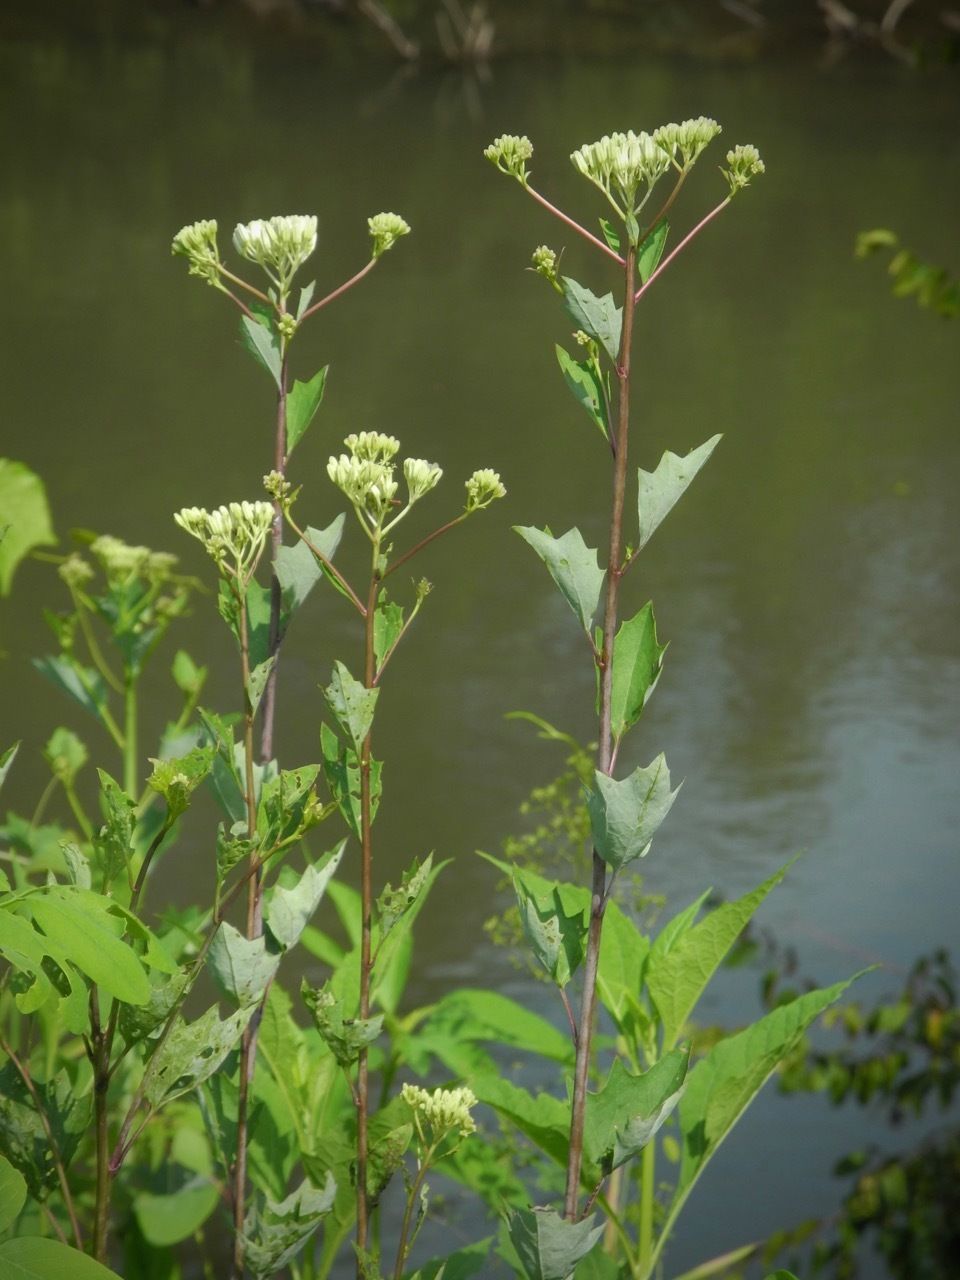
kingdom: Plantae
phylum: Tracheophyta
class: Magnoliopsida
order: Asterales
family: Asteraceae
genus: Arnoglossum
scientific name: Arnoglossum atriplicifolium
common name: Pale indian-plantain
